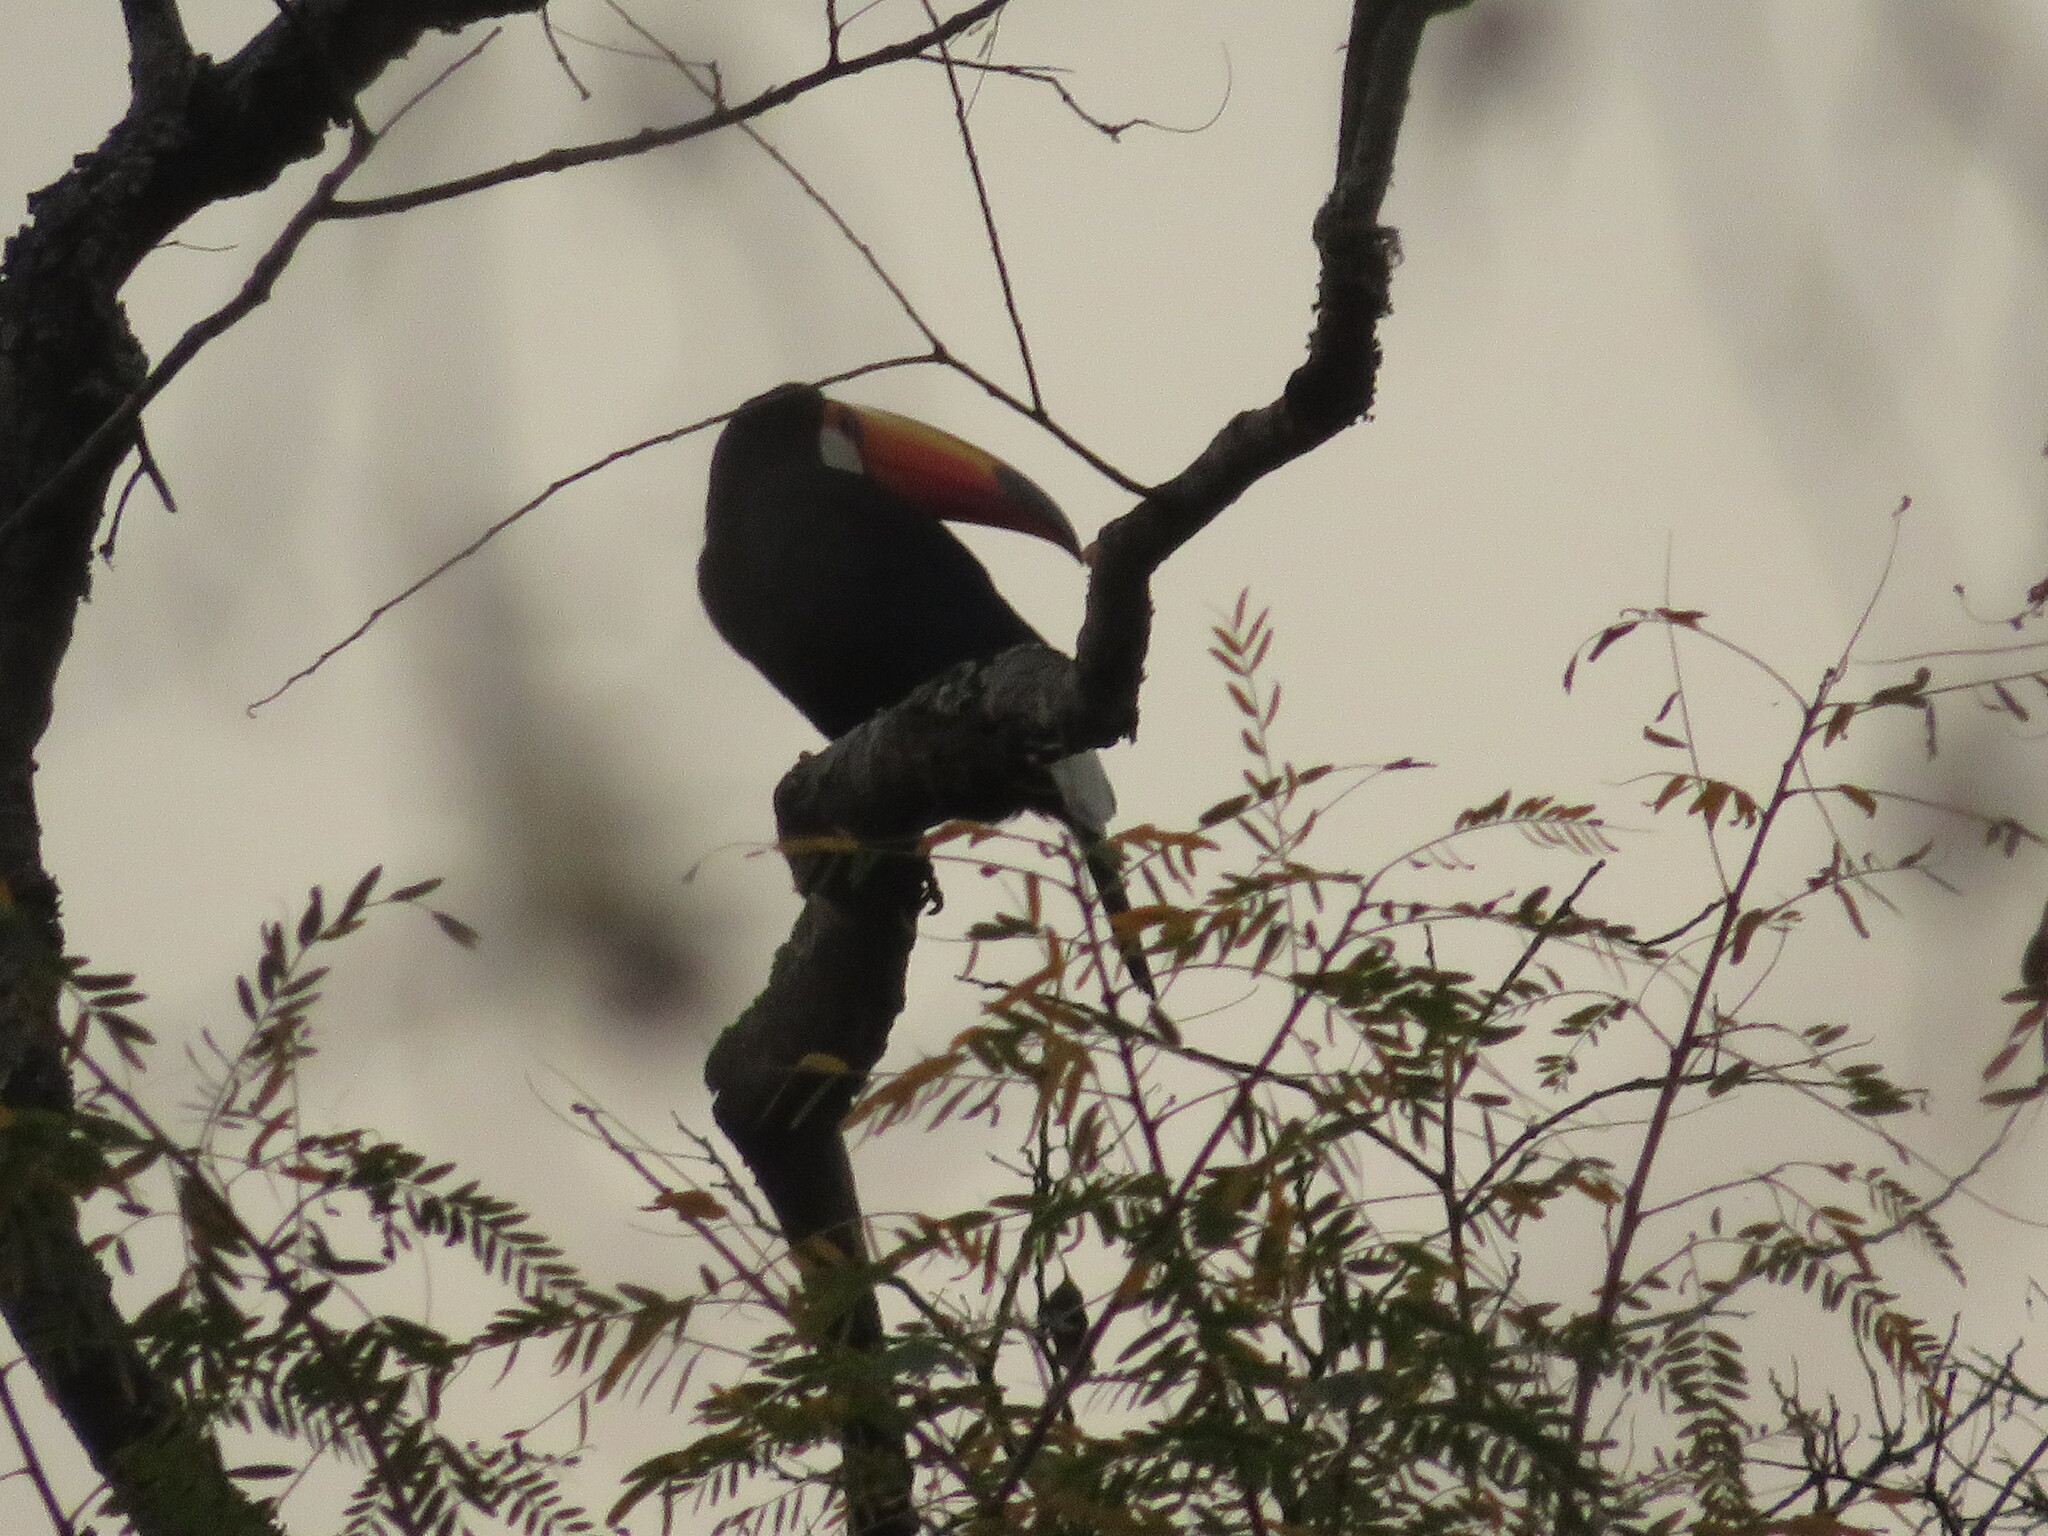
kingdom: Animalia
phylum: Chordata
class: Aves
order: Piciformes
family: Ramphastidae
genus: Ramphastos
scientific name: Ramphastos toco
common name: Toco toucan
